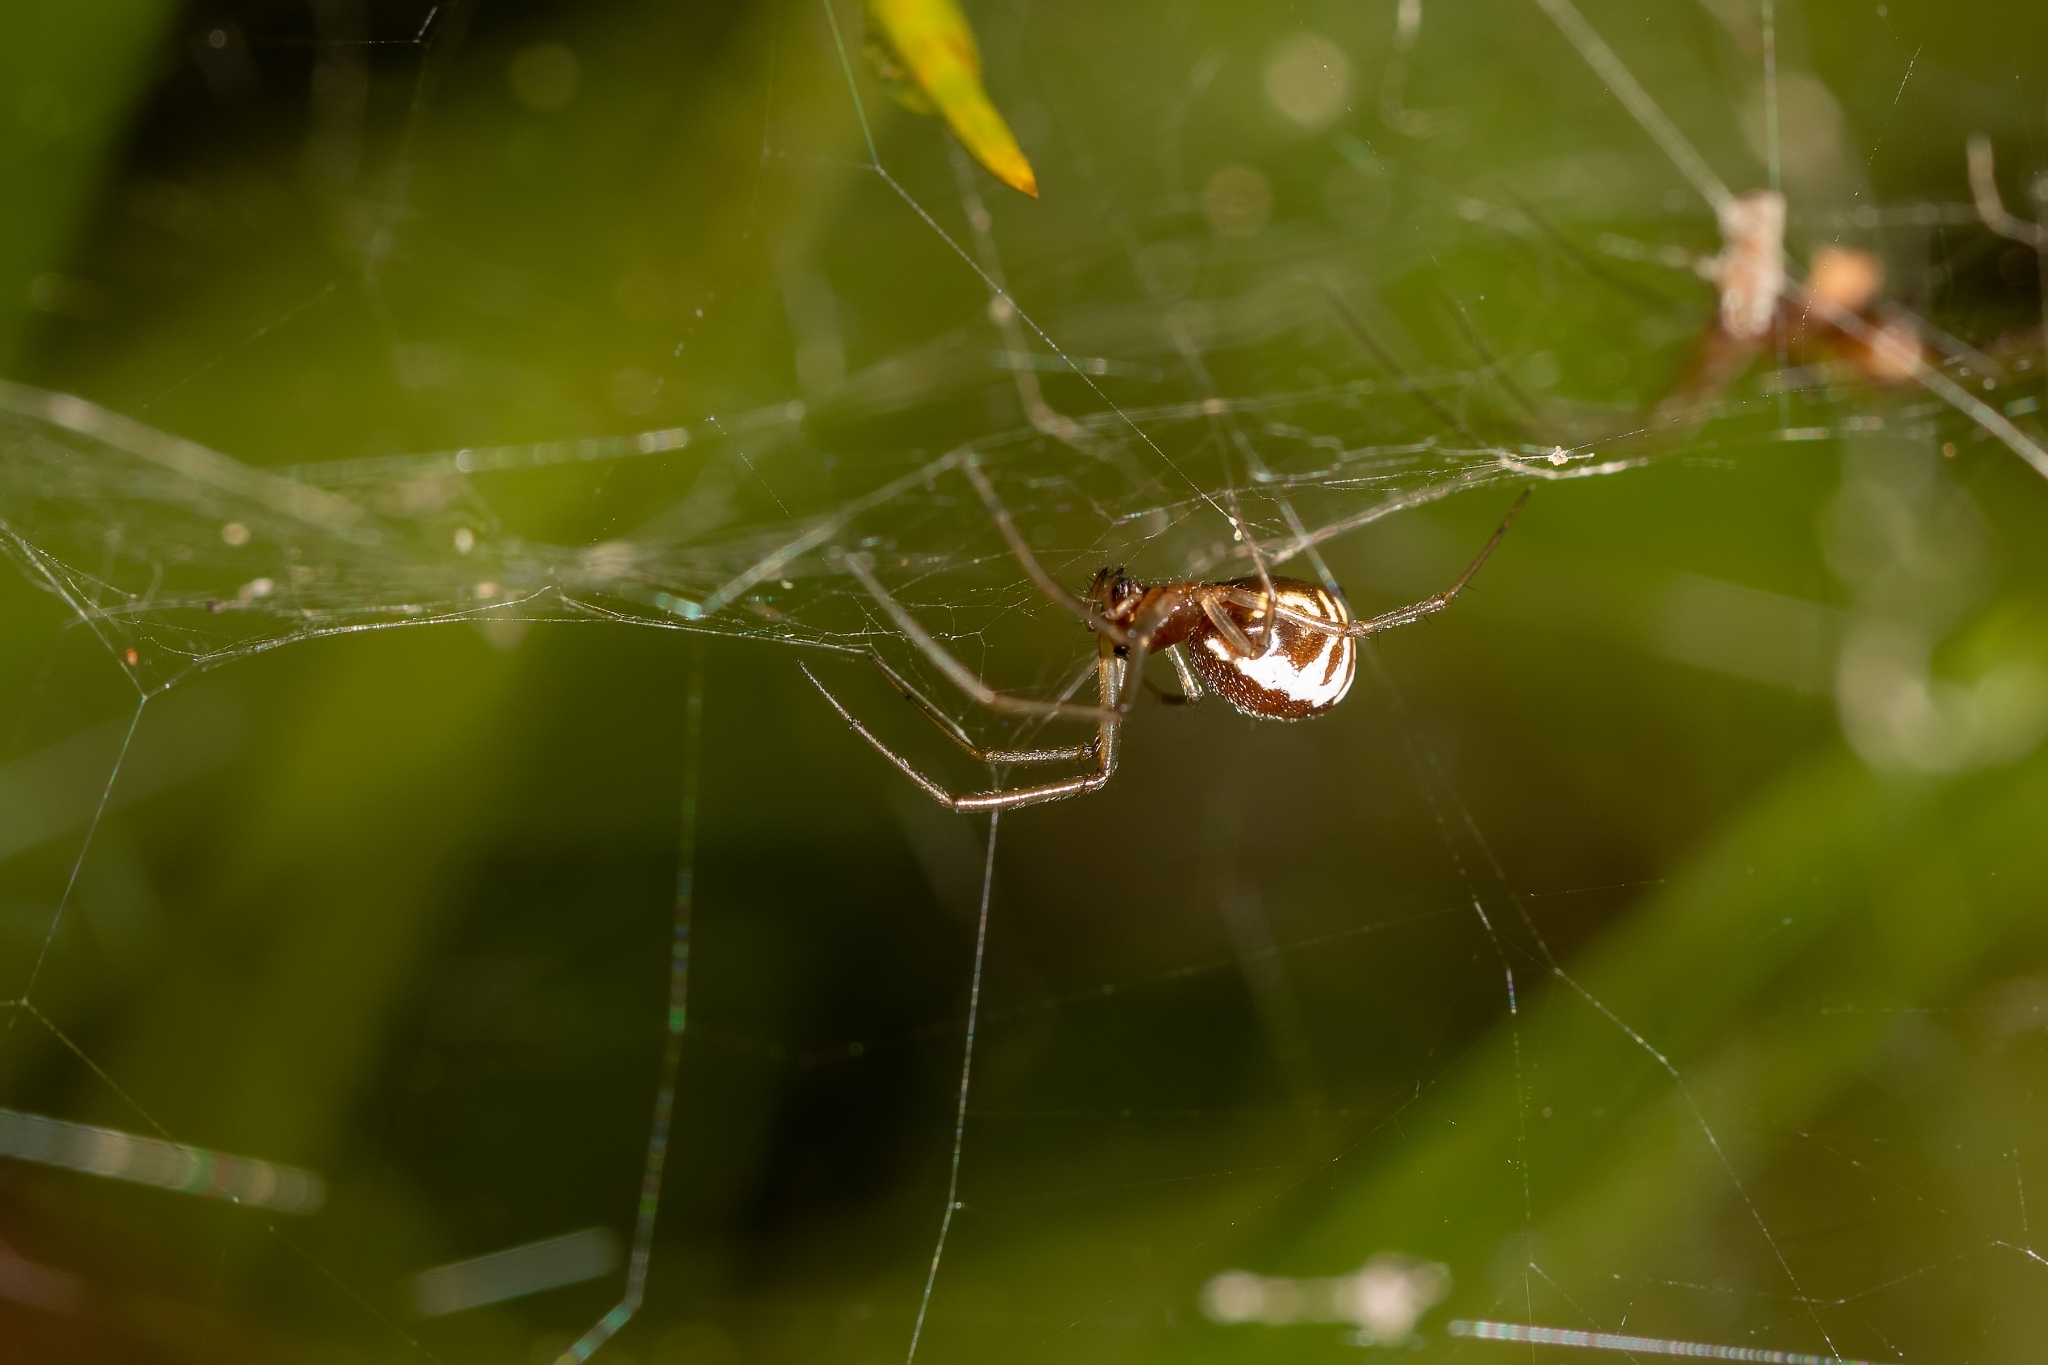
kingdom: Animalia
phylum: Arthropoda
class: Arachnida
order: Araneae
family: Linyphiidae
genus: Frontinella
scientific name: Frontinella pyramitela
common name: Bowl-and-doily spider
